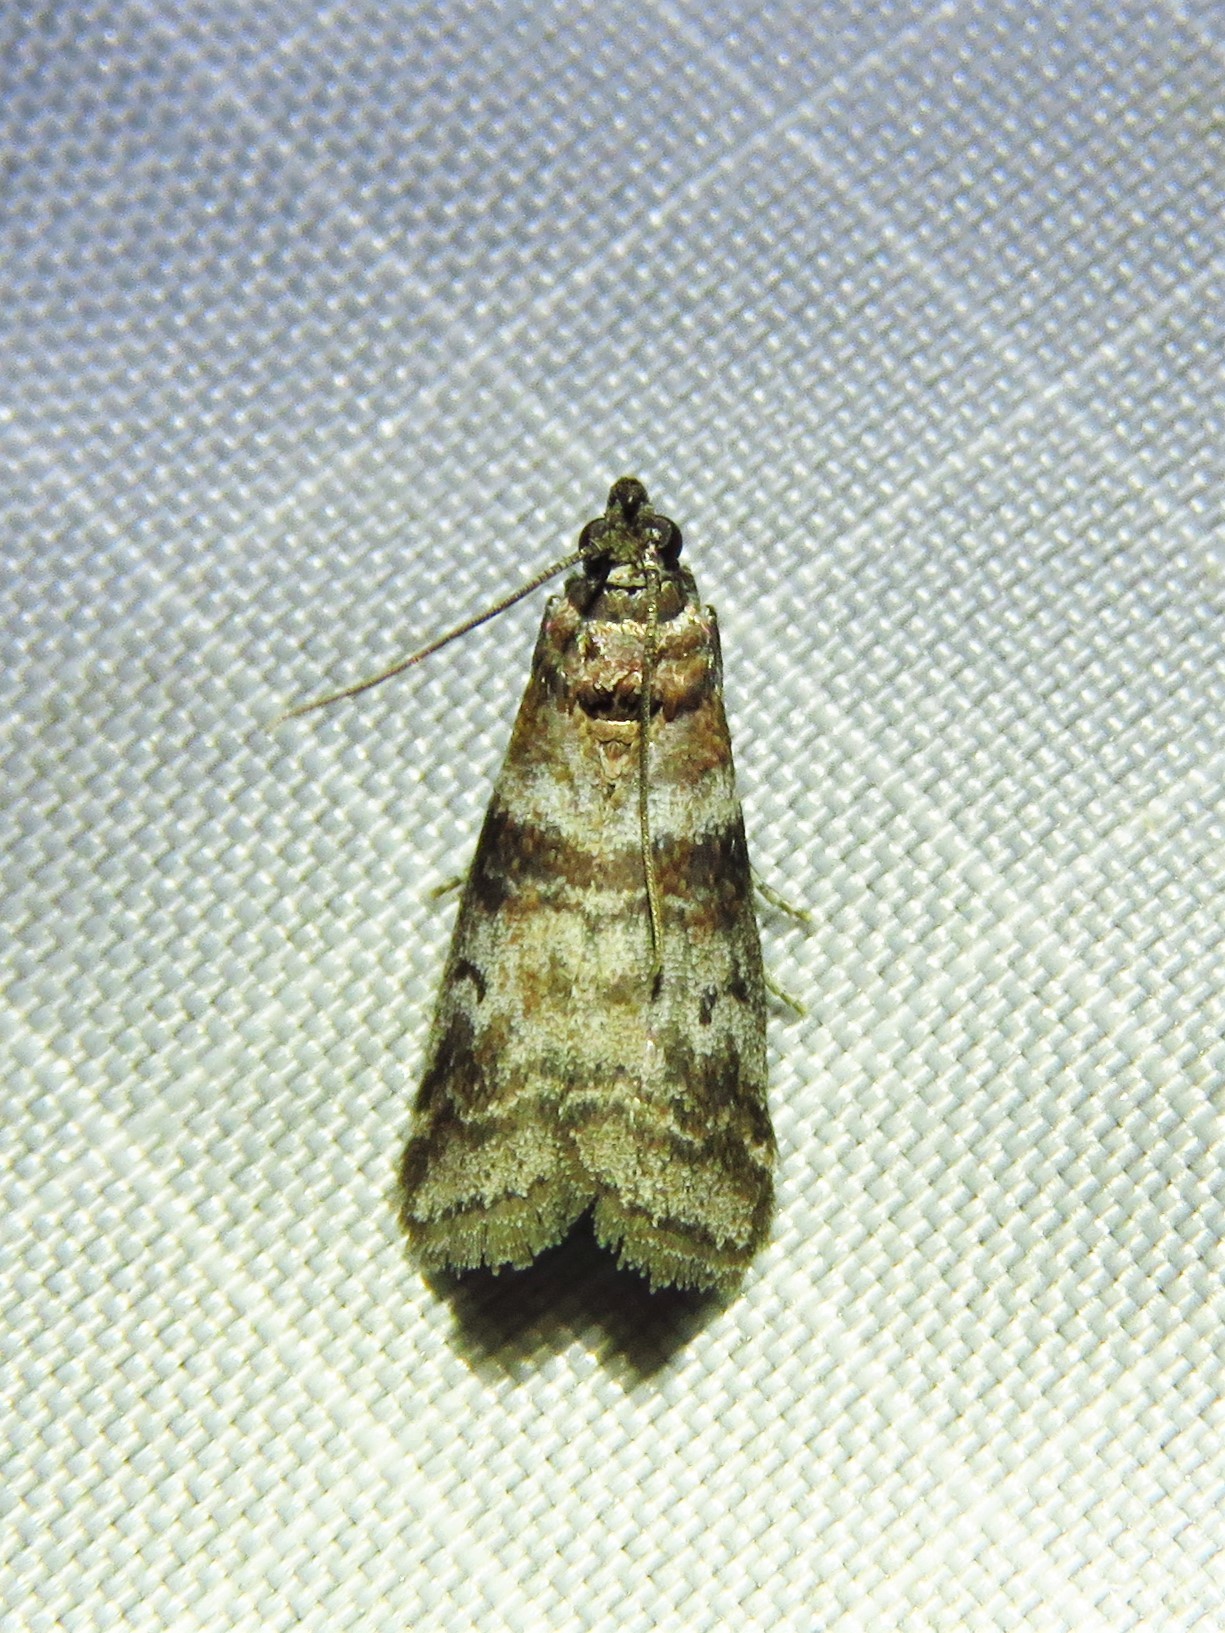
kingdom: Animalia
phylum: Arthropoda
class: Insecta
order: Lepidoptera
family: Pyralidae
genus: Sciota
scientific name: Sciota uvinella
